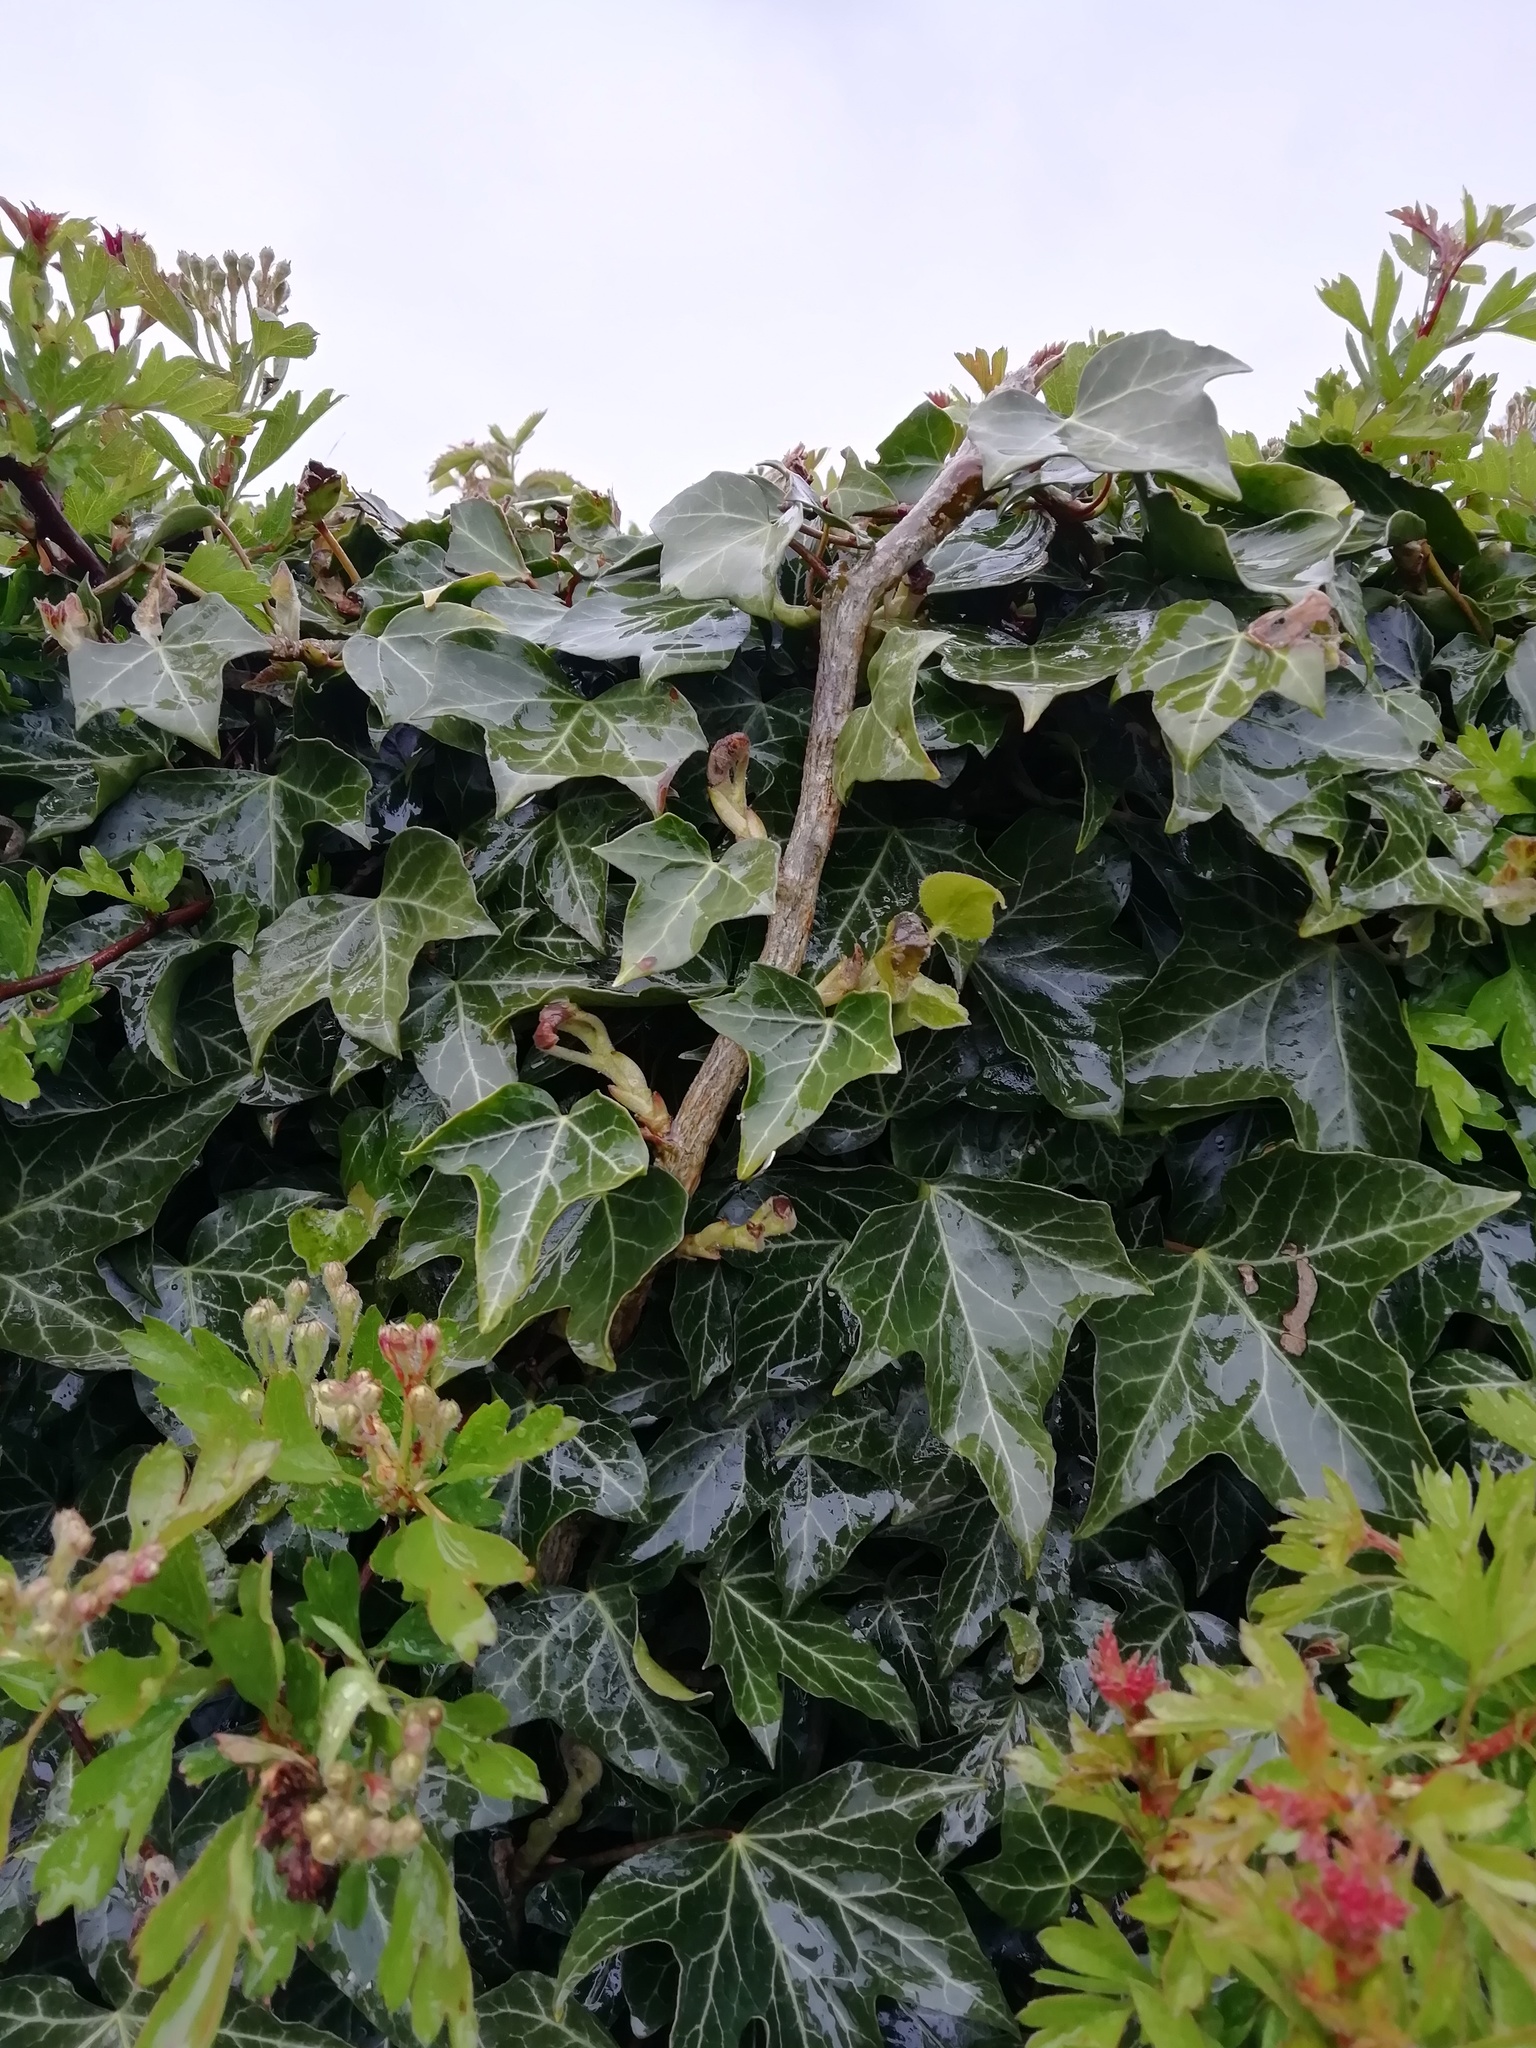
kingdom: Plantae
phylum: Tracheophyta
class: Magnoliopsida
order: Apiales
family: Araliaceae
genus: Hedera
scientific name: Hedera helix
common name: Ivy
